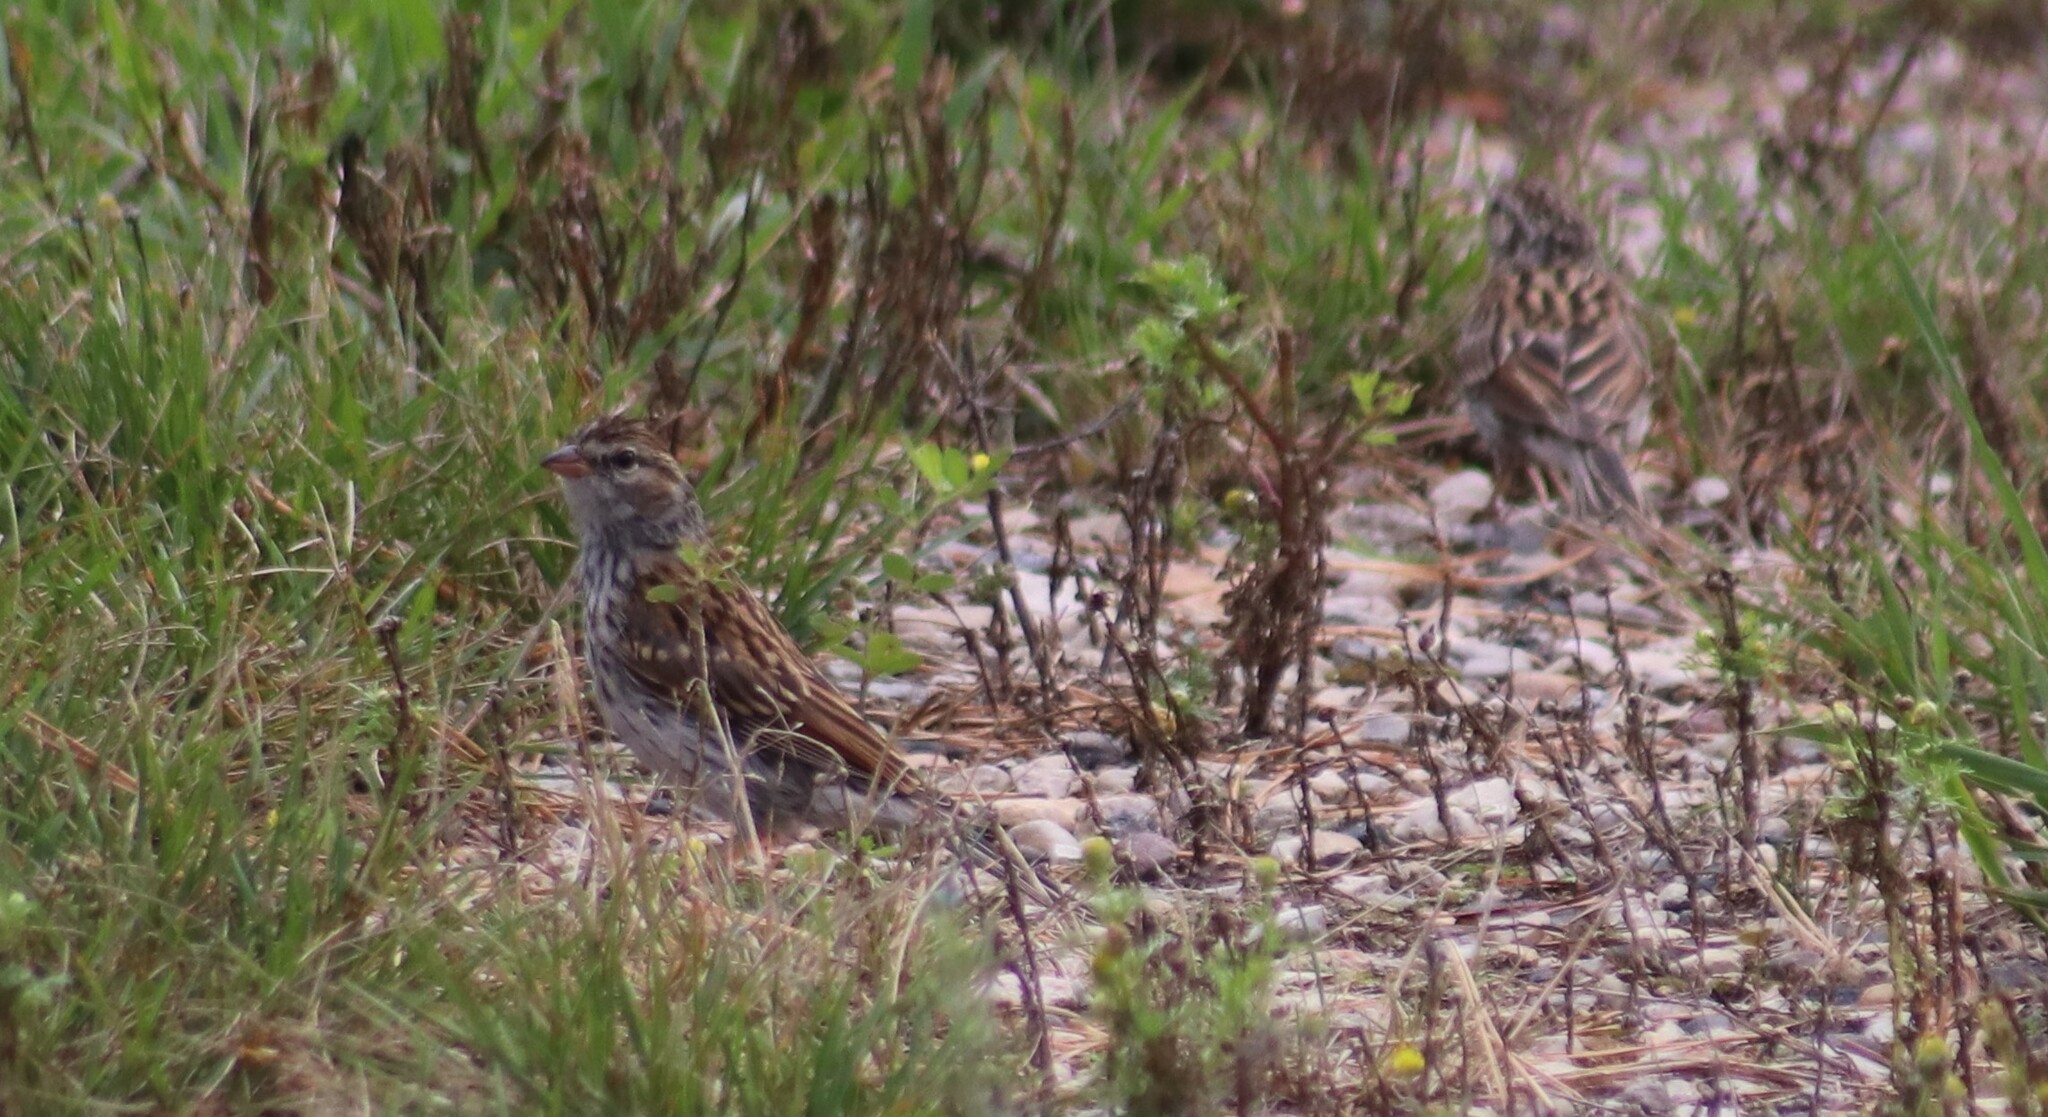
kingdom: Animalia
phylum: Chordata
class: Aves
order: Passeriformes
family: Passerellidae
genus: Spizella
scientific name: Spizella passerina
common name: Chipping sparrow
